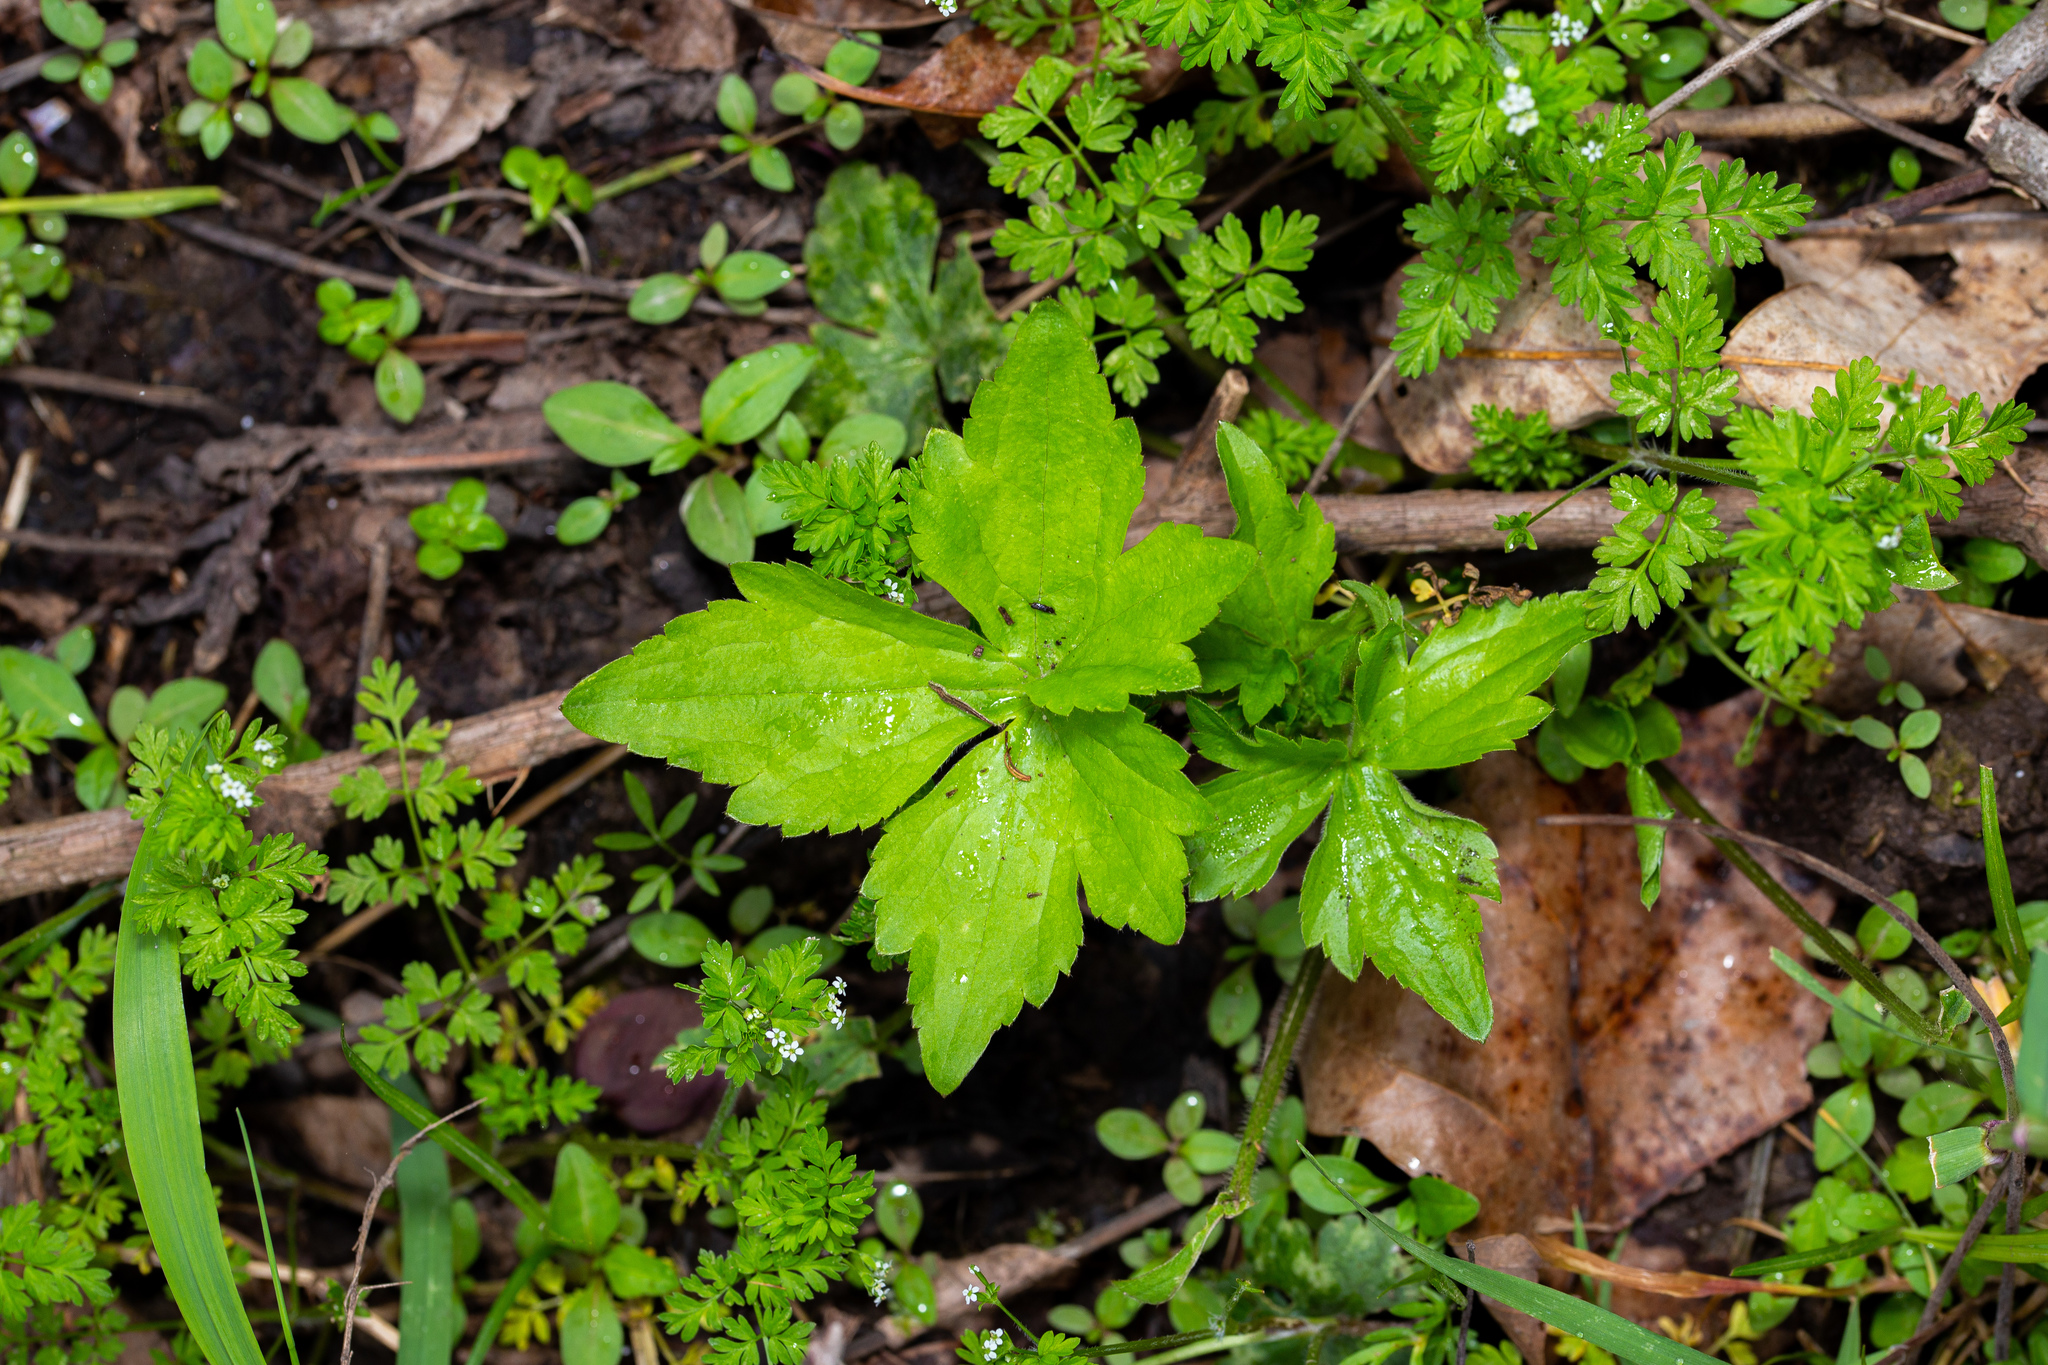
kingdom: Plantae
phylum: Tracheophyta
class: Magnoliopsida
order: Ranunculales
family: Ranunculaceae
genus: Ranunculus
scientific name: Ranunculus recurvatus
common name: Blisterwort
